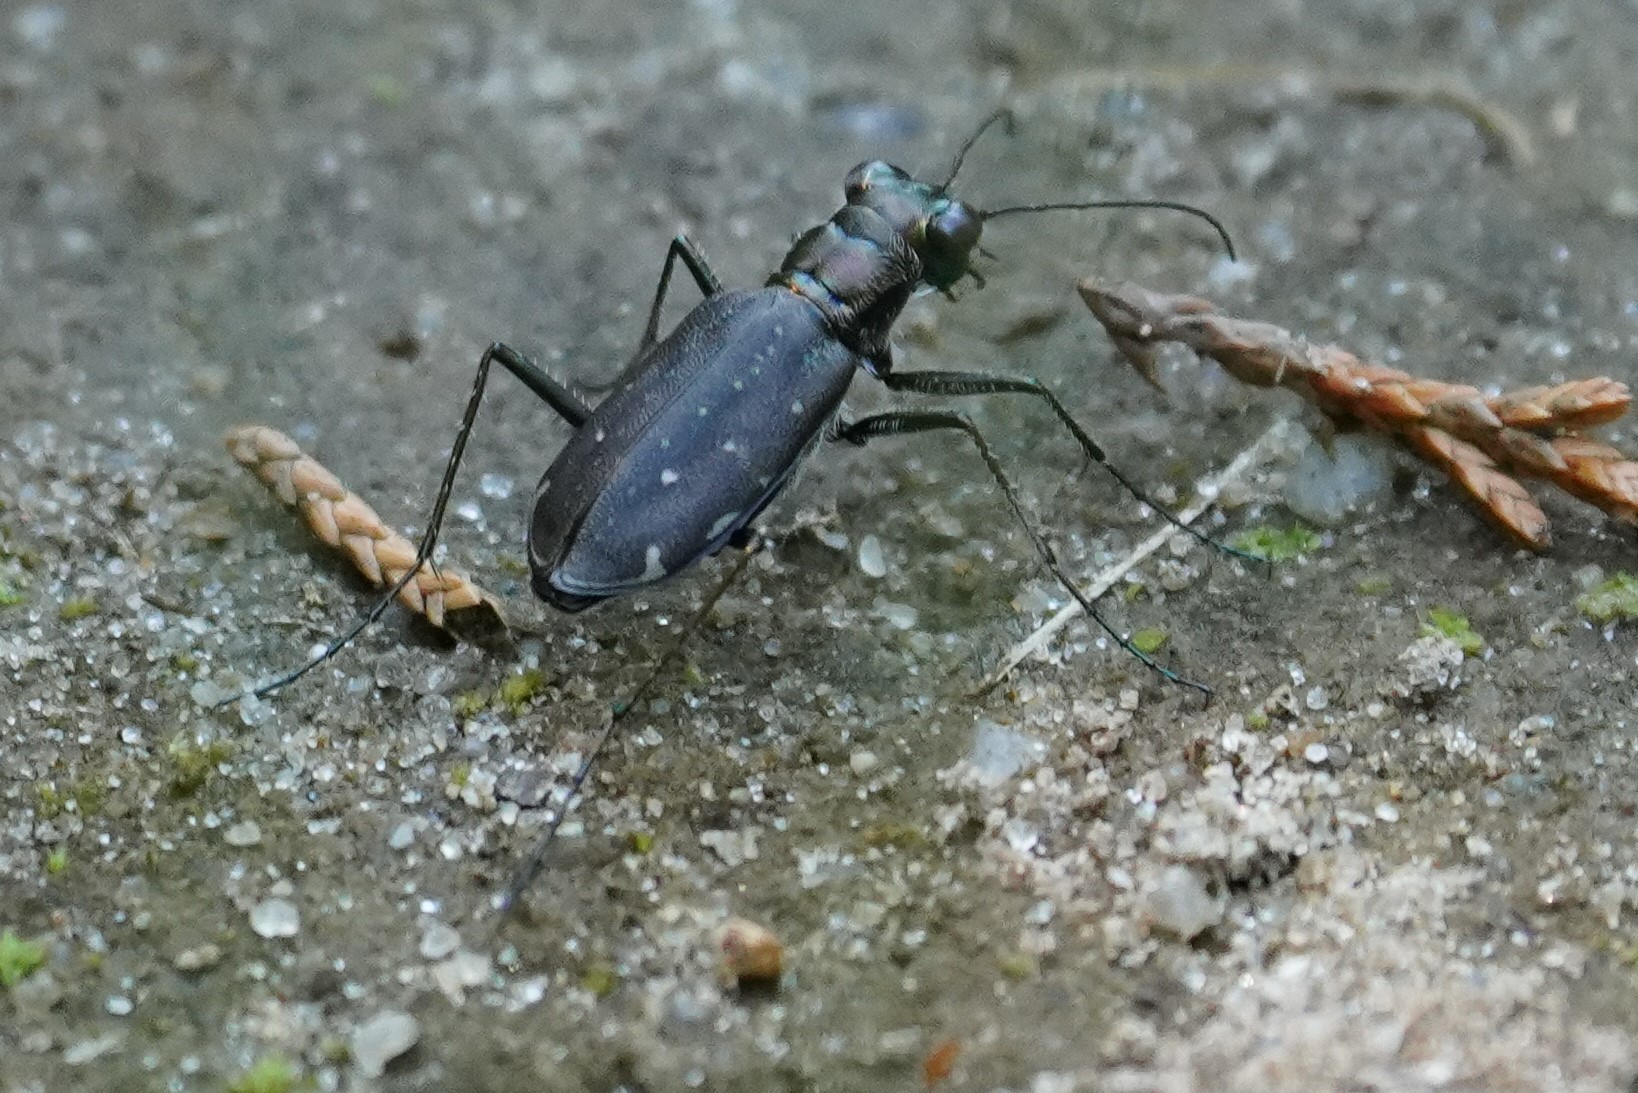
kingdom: Animalia
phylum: Arthropoda
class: Insecta
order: Coleoptera
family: Carabidae
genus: Cicindela
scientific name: Cicindela punctulata
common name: Punctured tiger beetle
